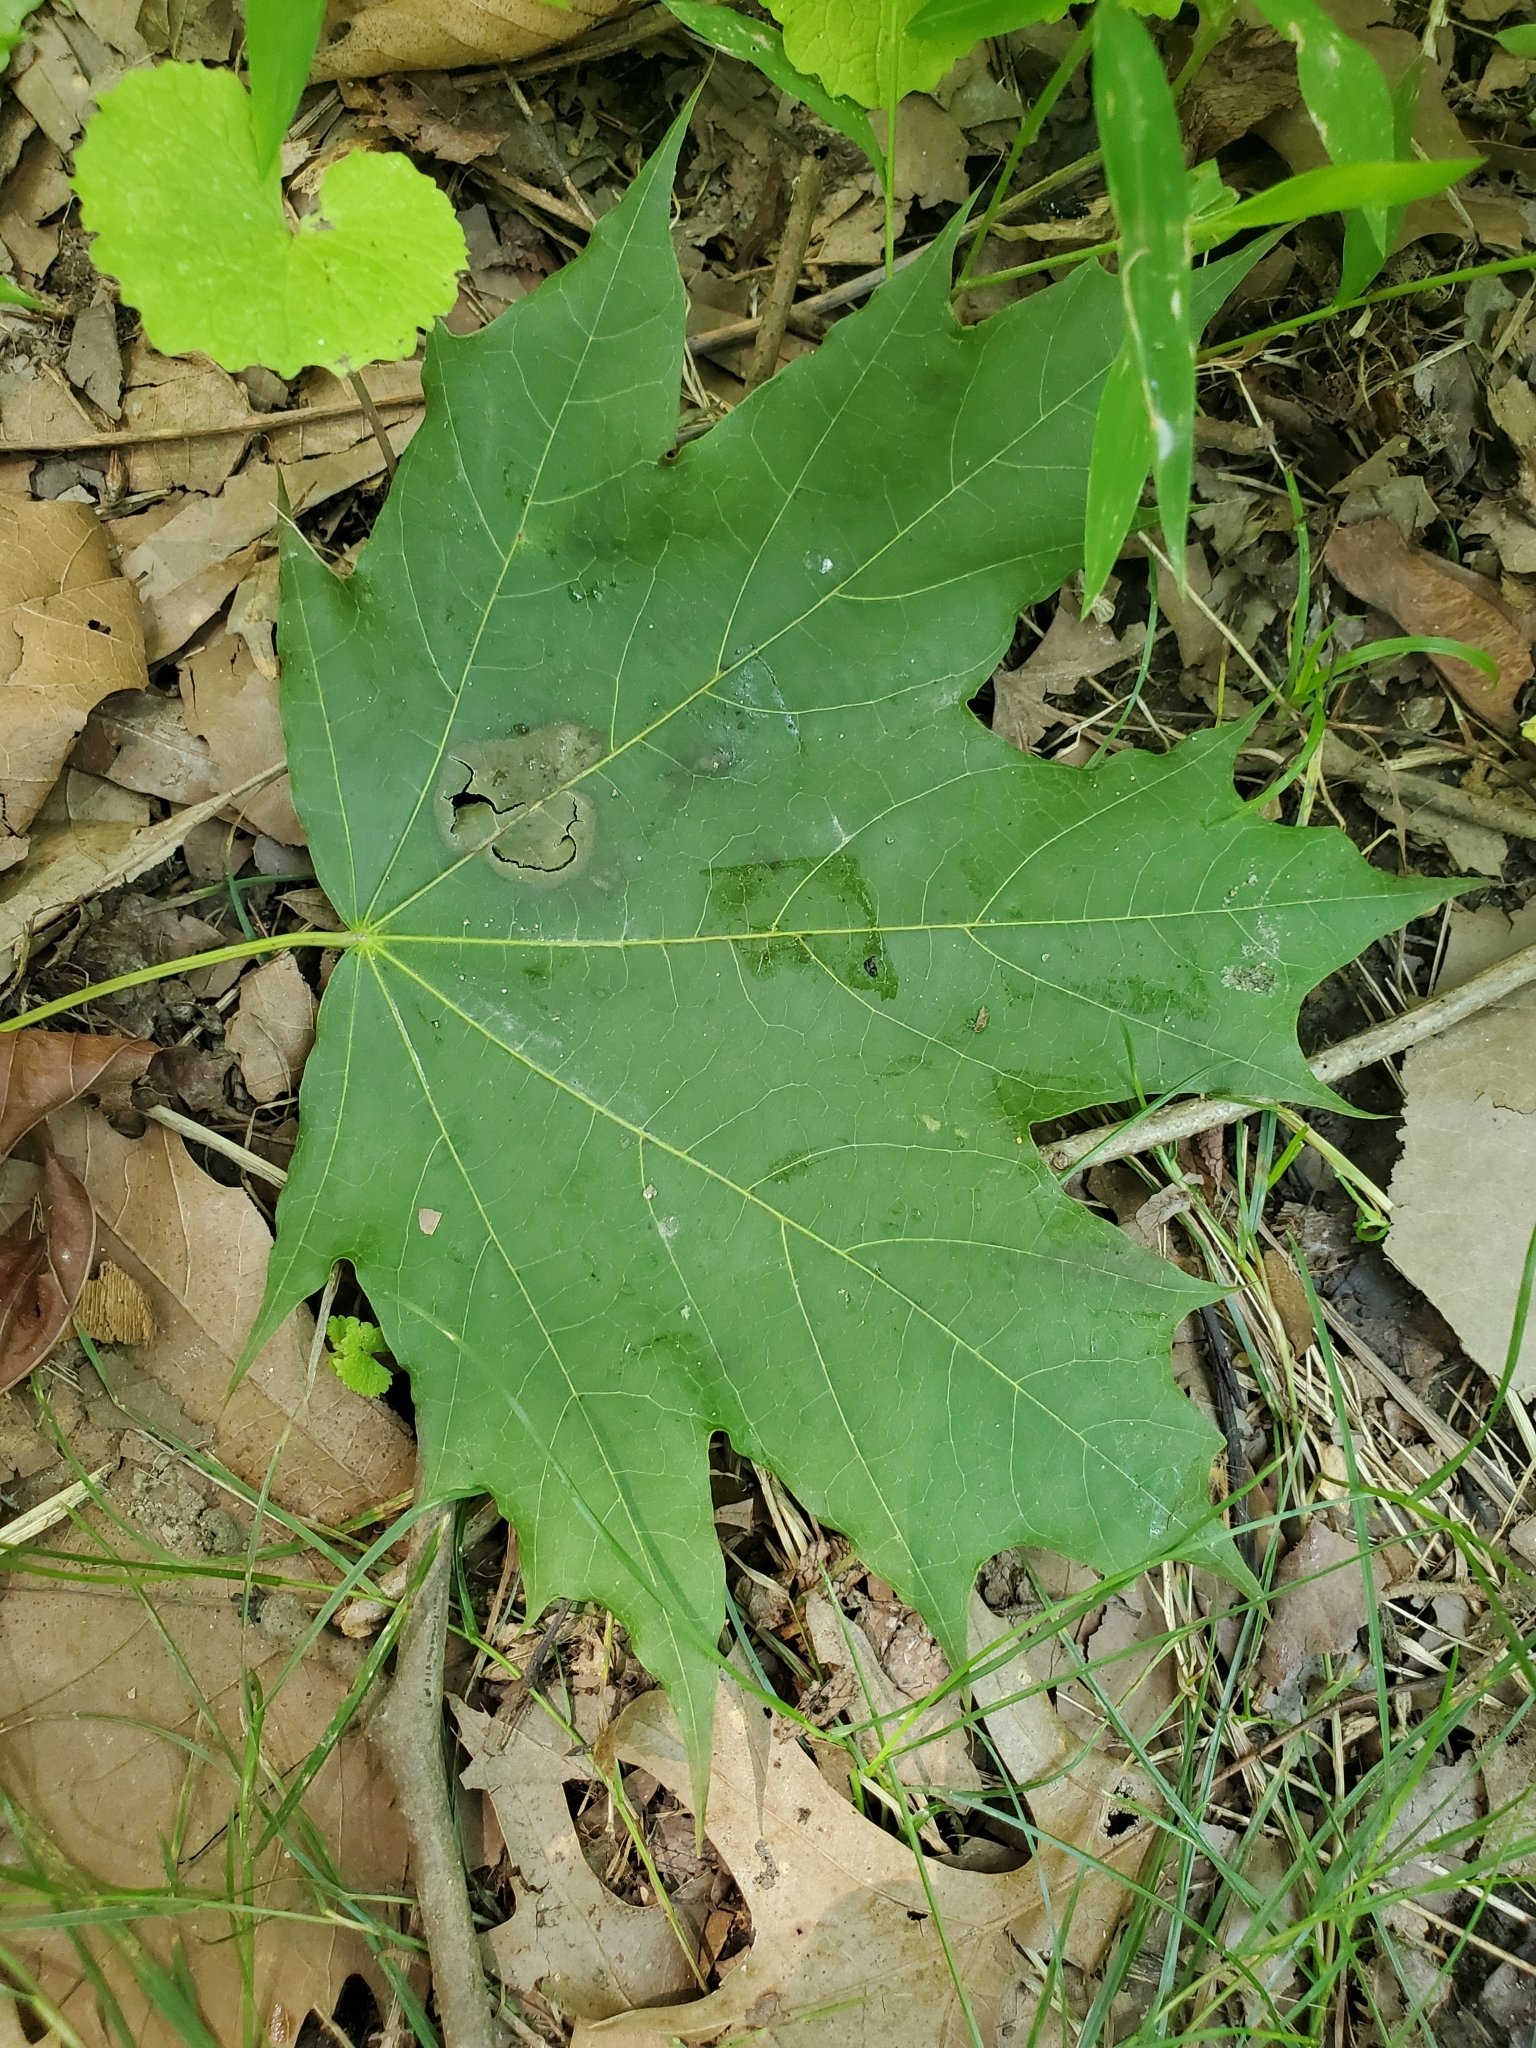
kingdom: Plantae
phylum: Tracheophyta
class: Magnoliopsida
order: Sapindales
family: Sapindaceae
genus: Acer
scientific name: Acer platanoides
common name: Norway maple
